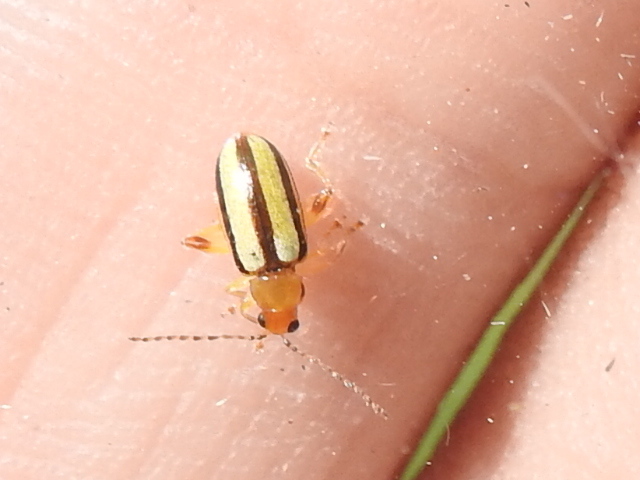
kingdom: Animalia
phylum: Arthropoda
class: Insecta
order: Coleoptera
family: Chrysomelidae
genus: Systena
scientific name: Systena gracilenta
